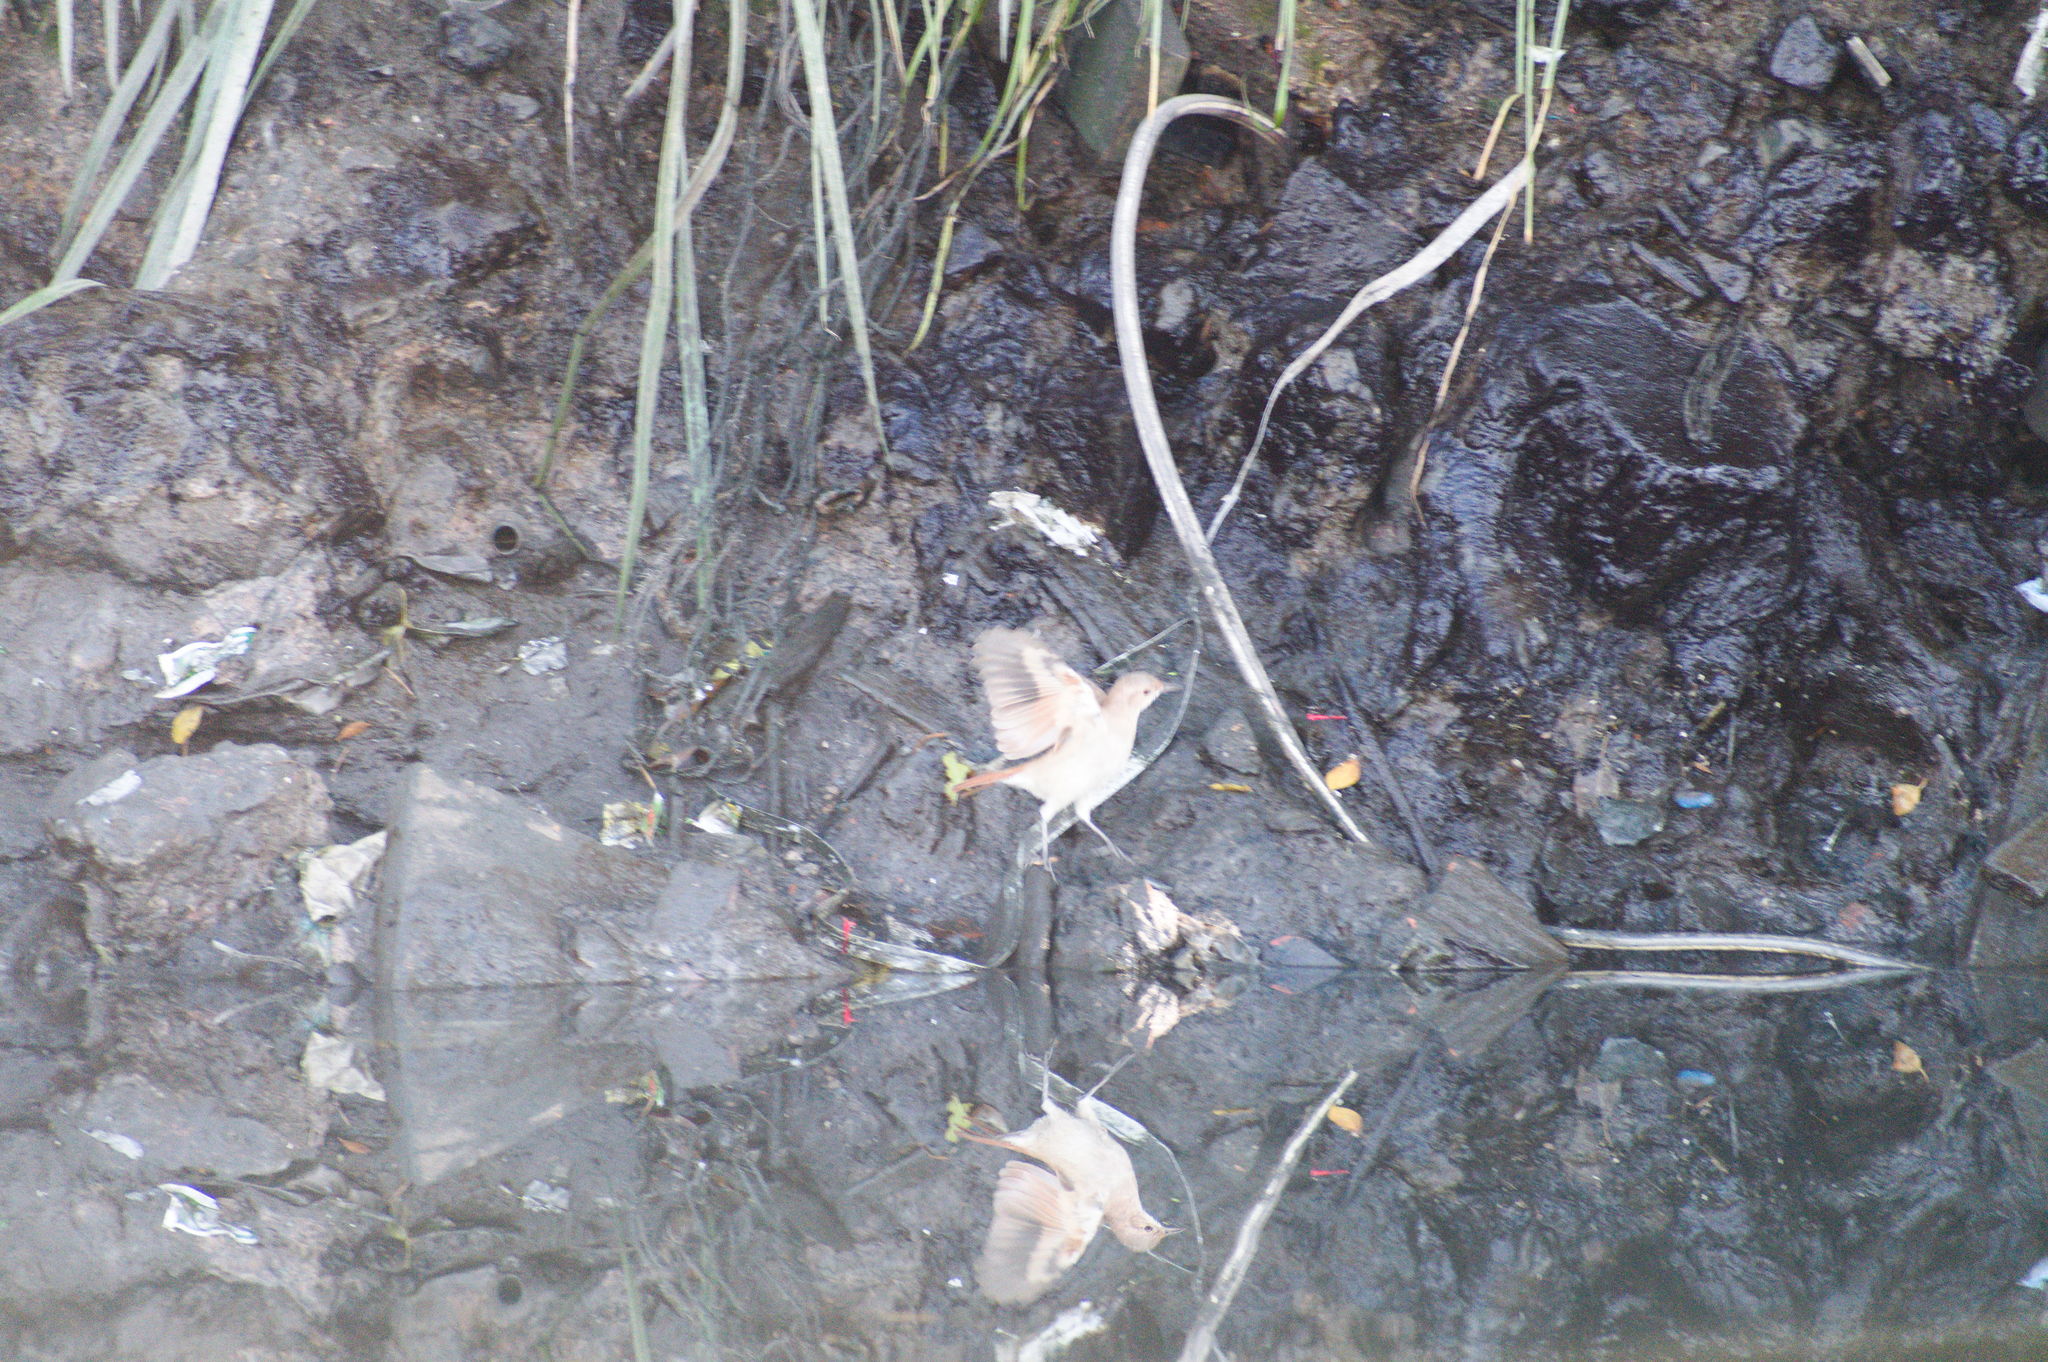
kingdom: Animalia
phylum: Chordata
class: Aves
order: Passeriformes
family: Furnariidae
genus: Furnarius
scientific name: Furnarius rufus
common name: Rufous hornero
